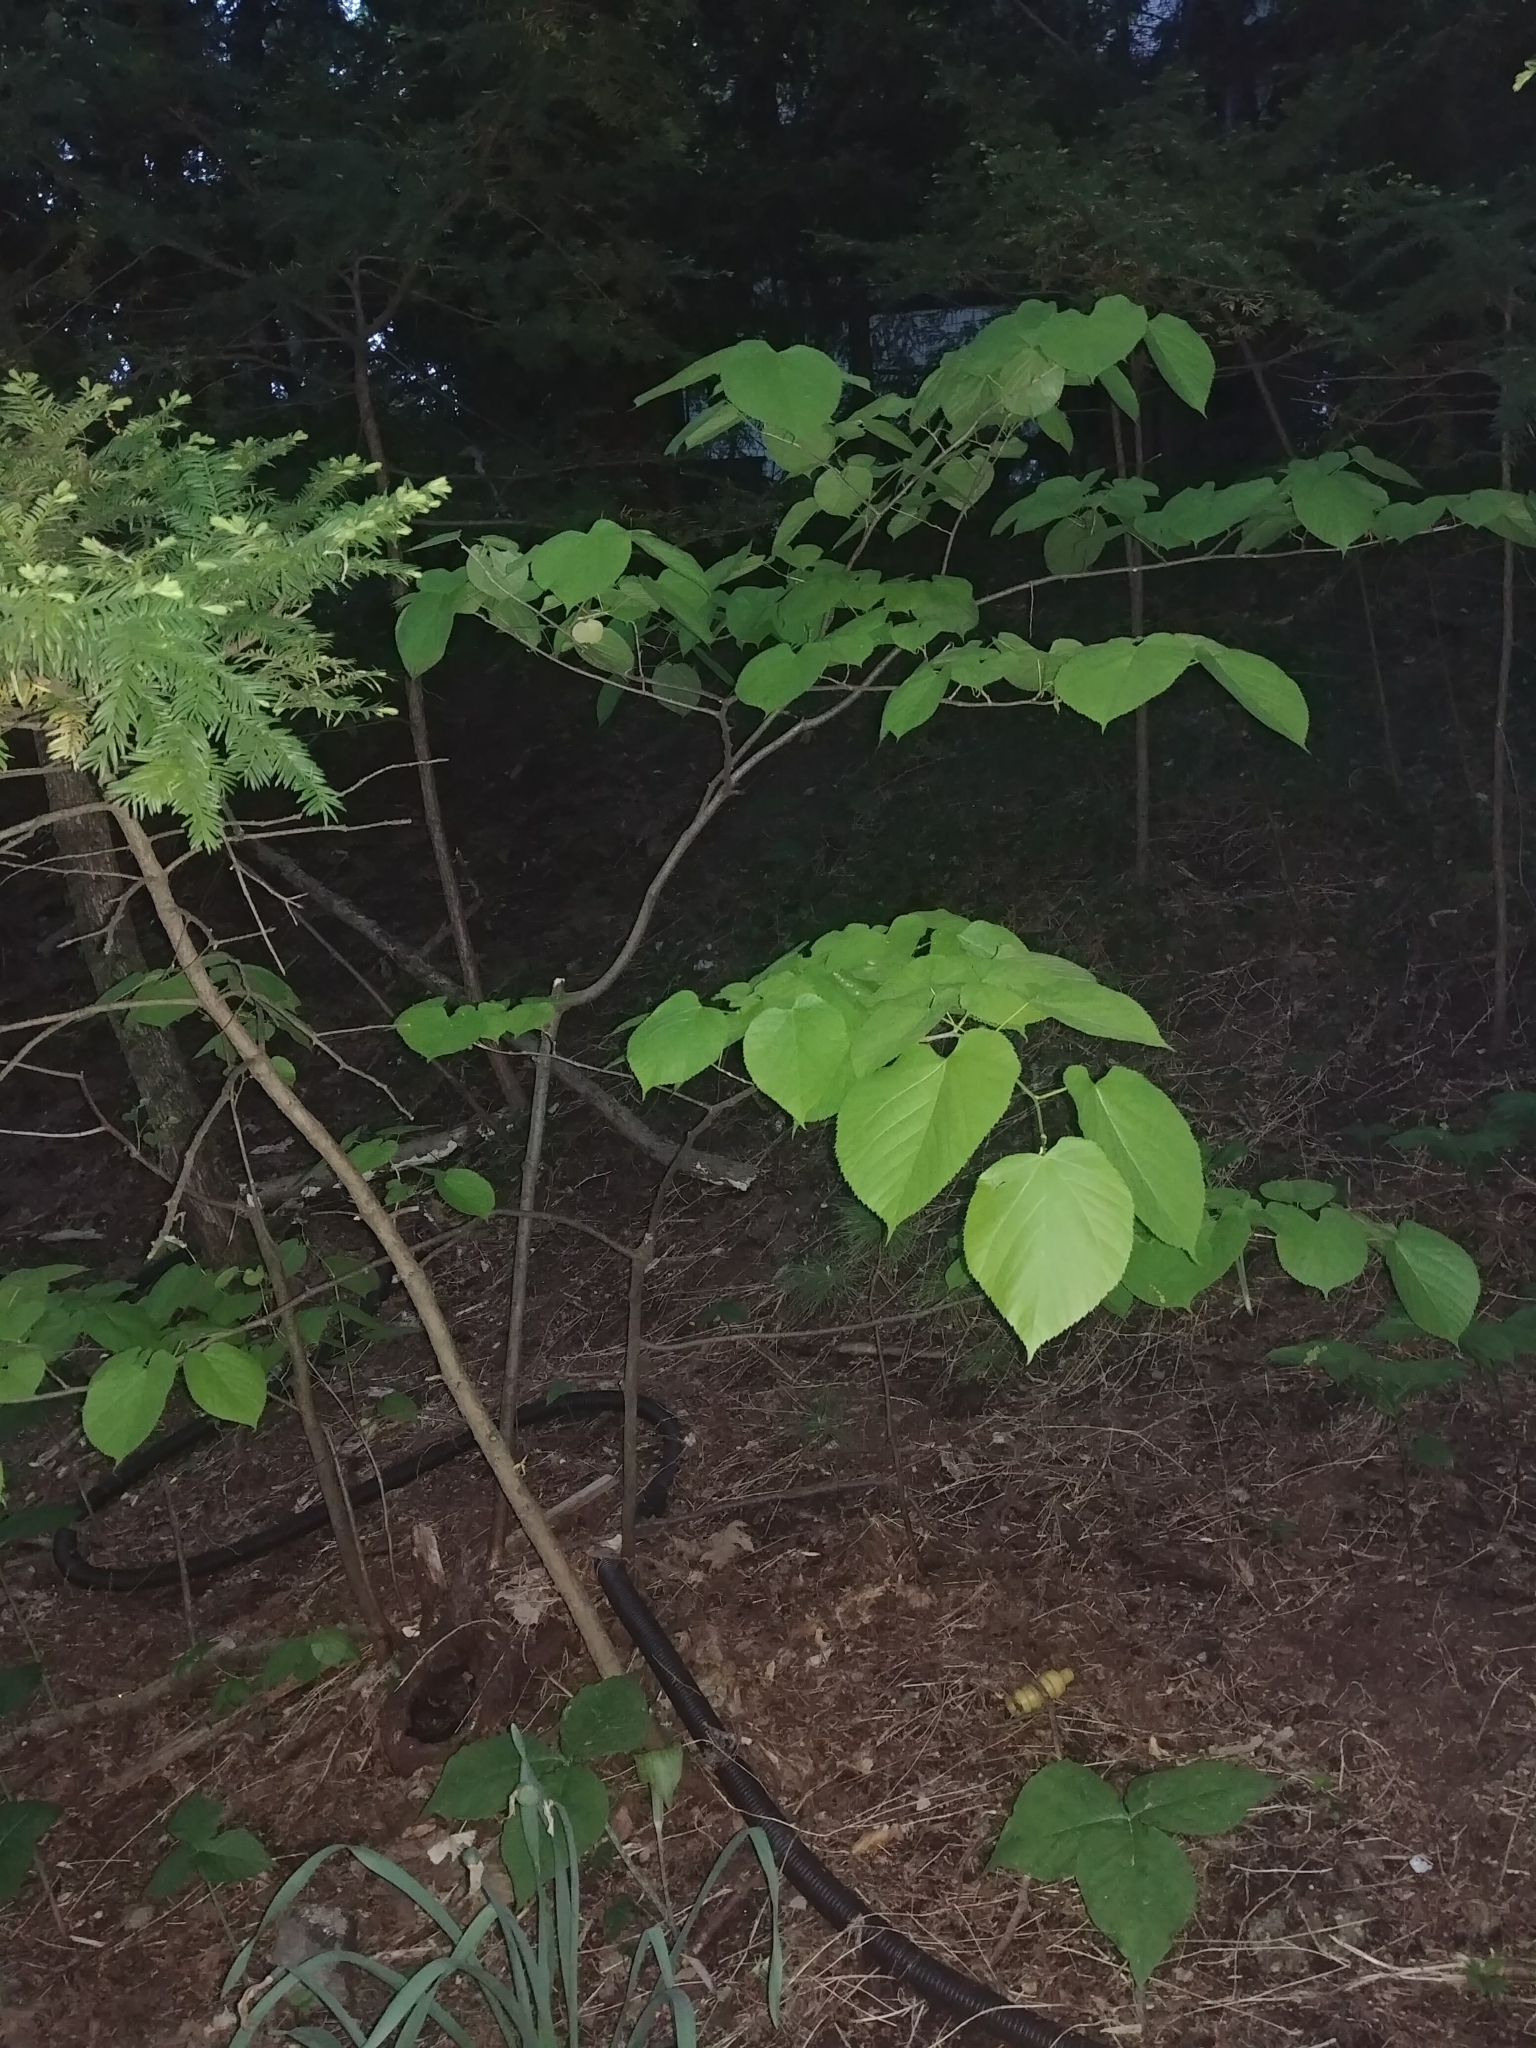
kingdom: Plantae
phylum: Tracheophyta
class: Magnoliopsida
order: Malvales
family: Malvaceae
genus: Tilia
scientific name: Tilia americana
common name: Basswood
